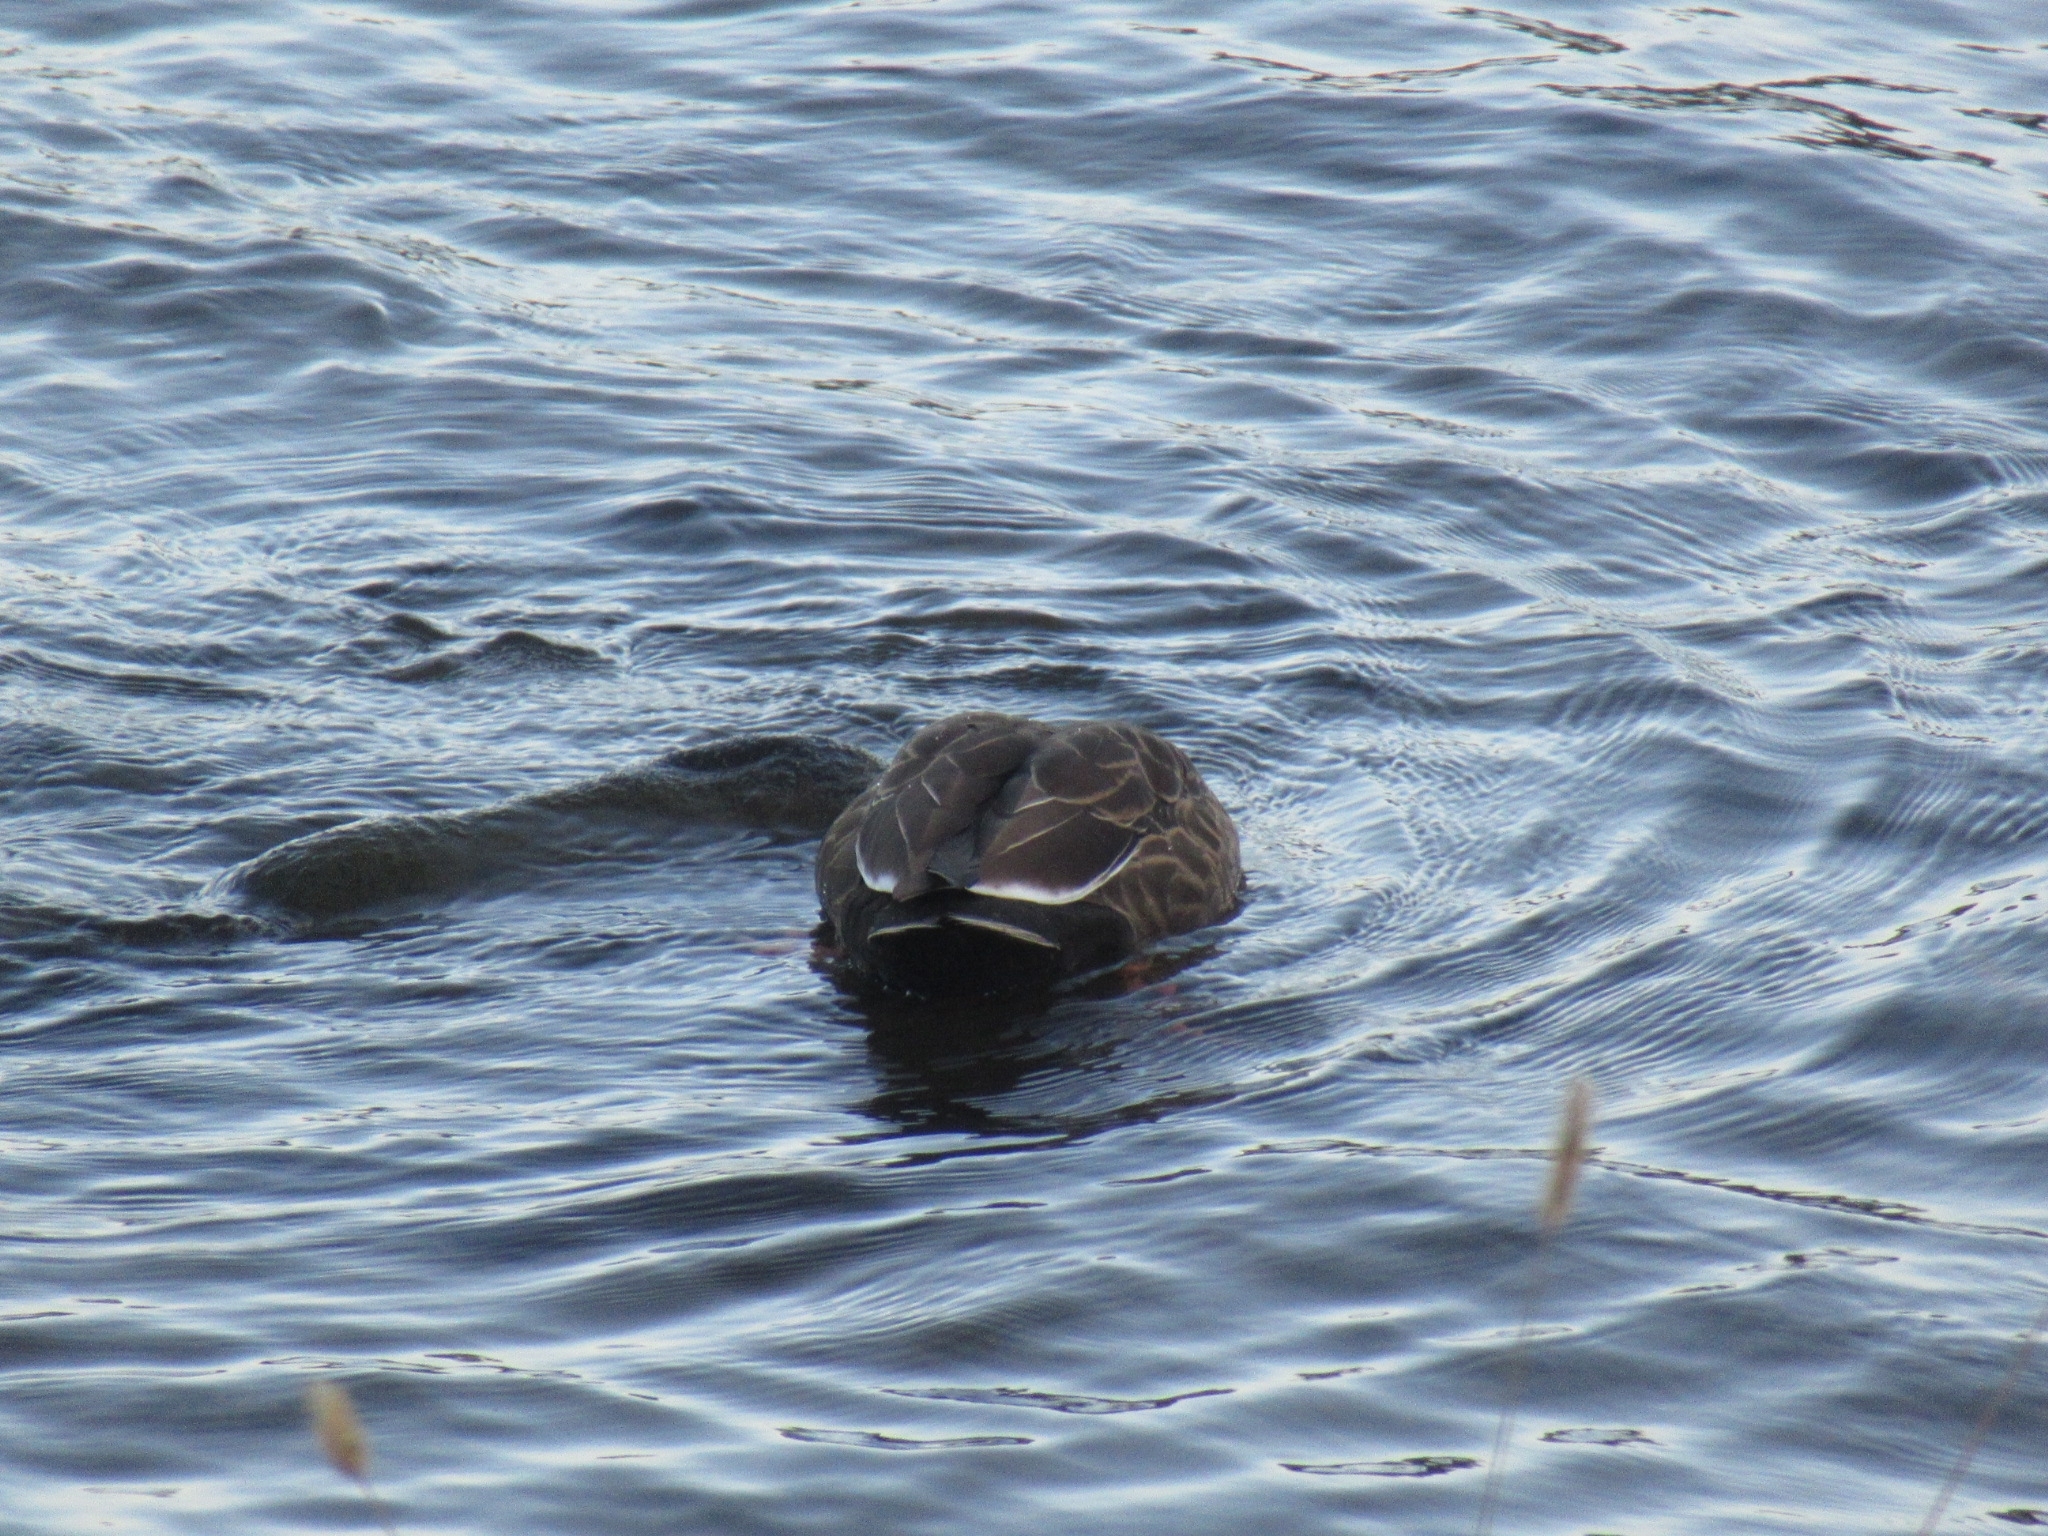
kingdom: Animalia
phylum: Chordata
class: Aves
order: Anseriformes
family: Anatidae
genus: Anas
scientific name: Anas zonorhyncha
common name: Eastern spot-billed duck
